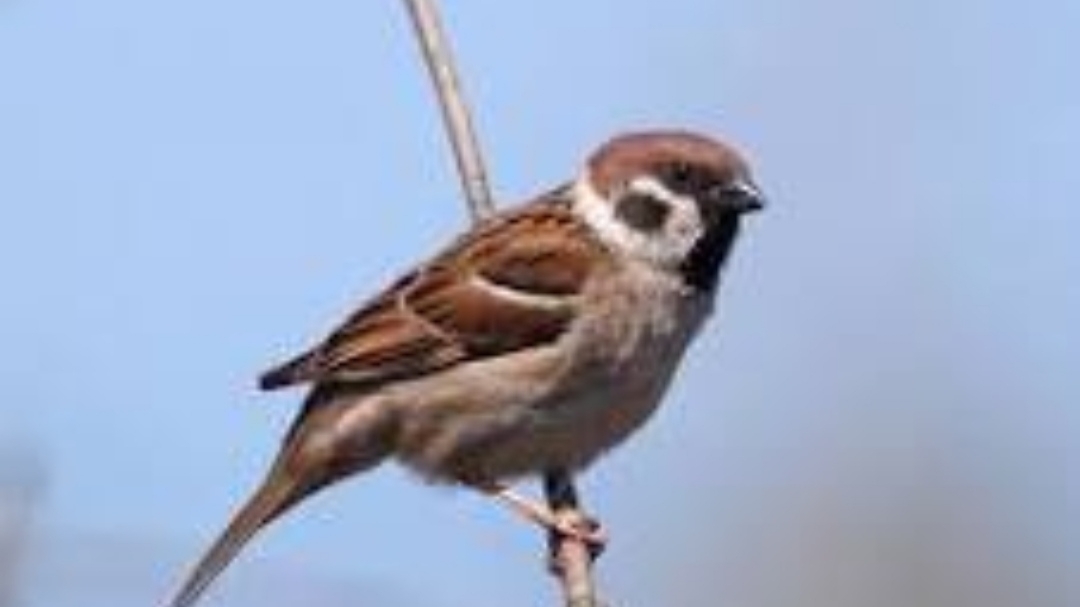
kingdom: Animalia
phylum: Chordata
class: Aves
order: Passeriformes
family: Passeridae
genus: Passer
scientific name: Passer montanus
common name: Eurasian tree sparrow
